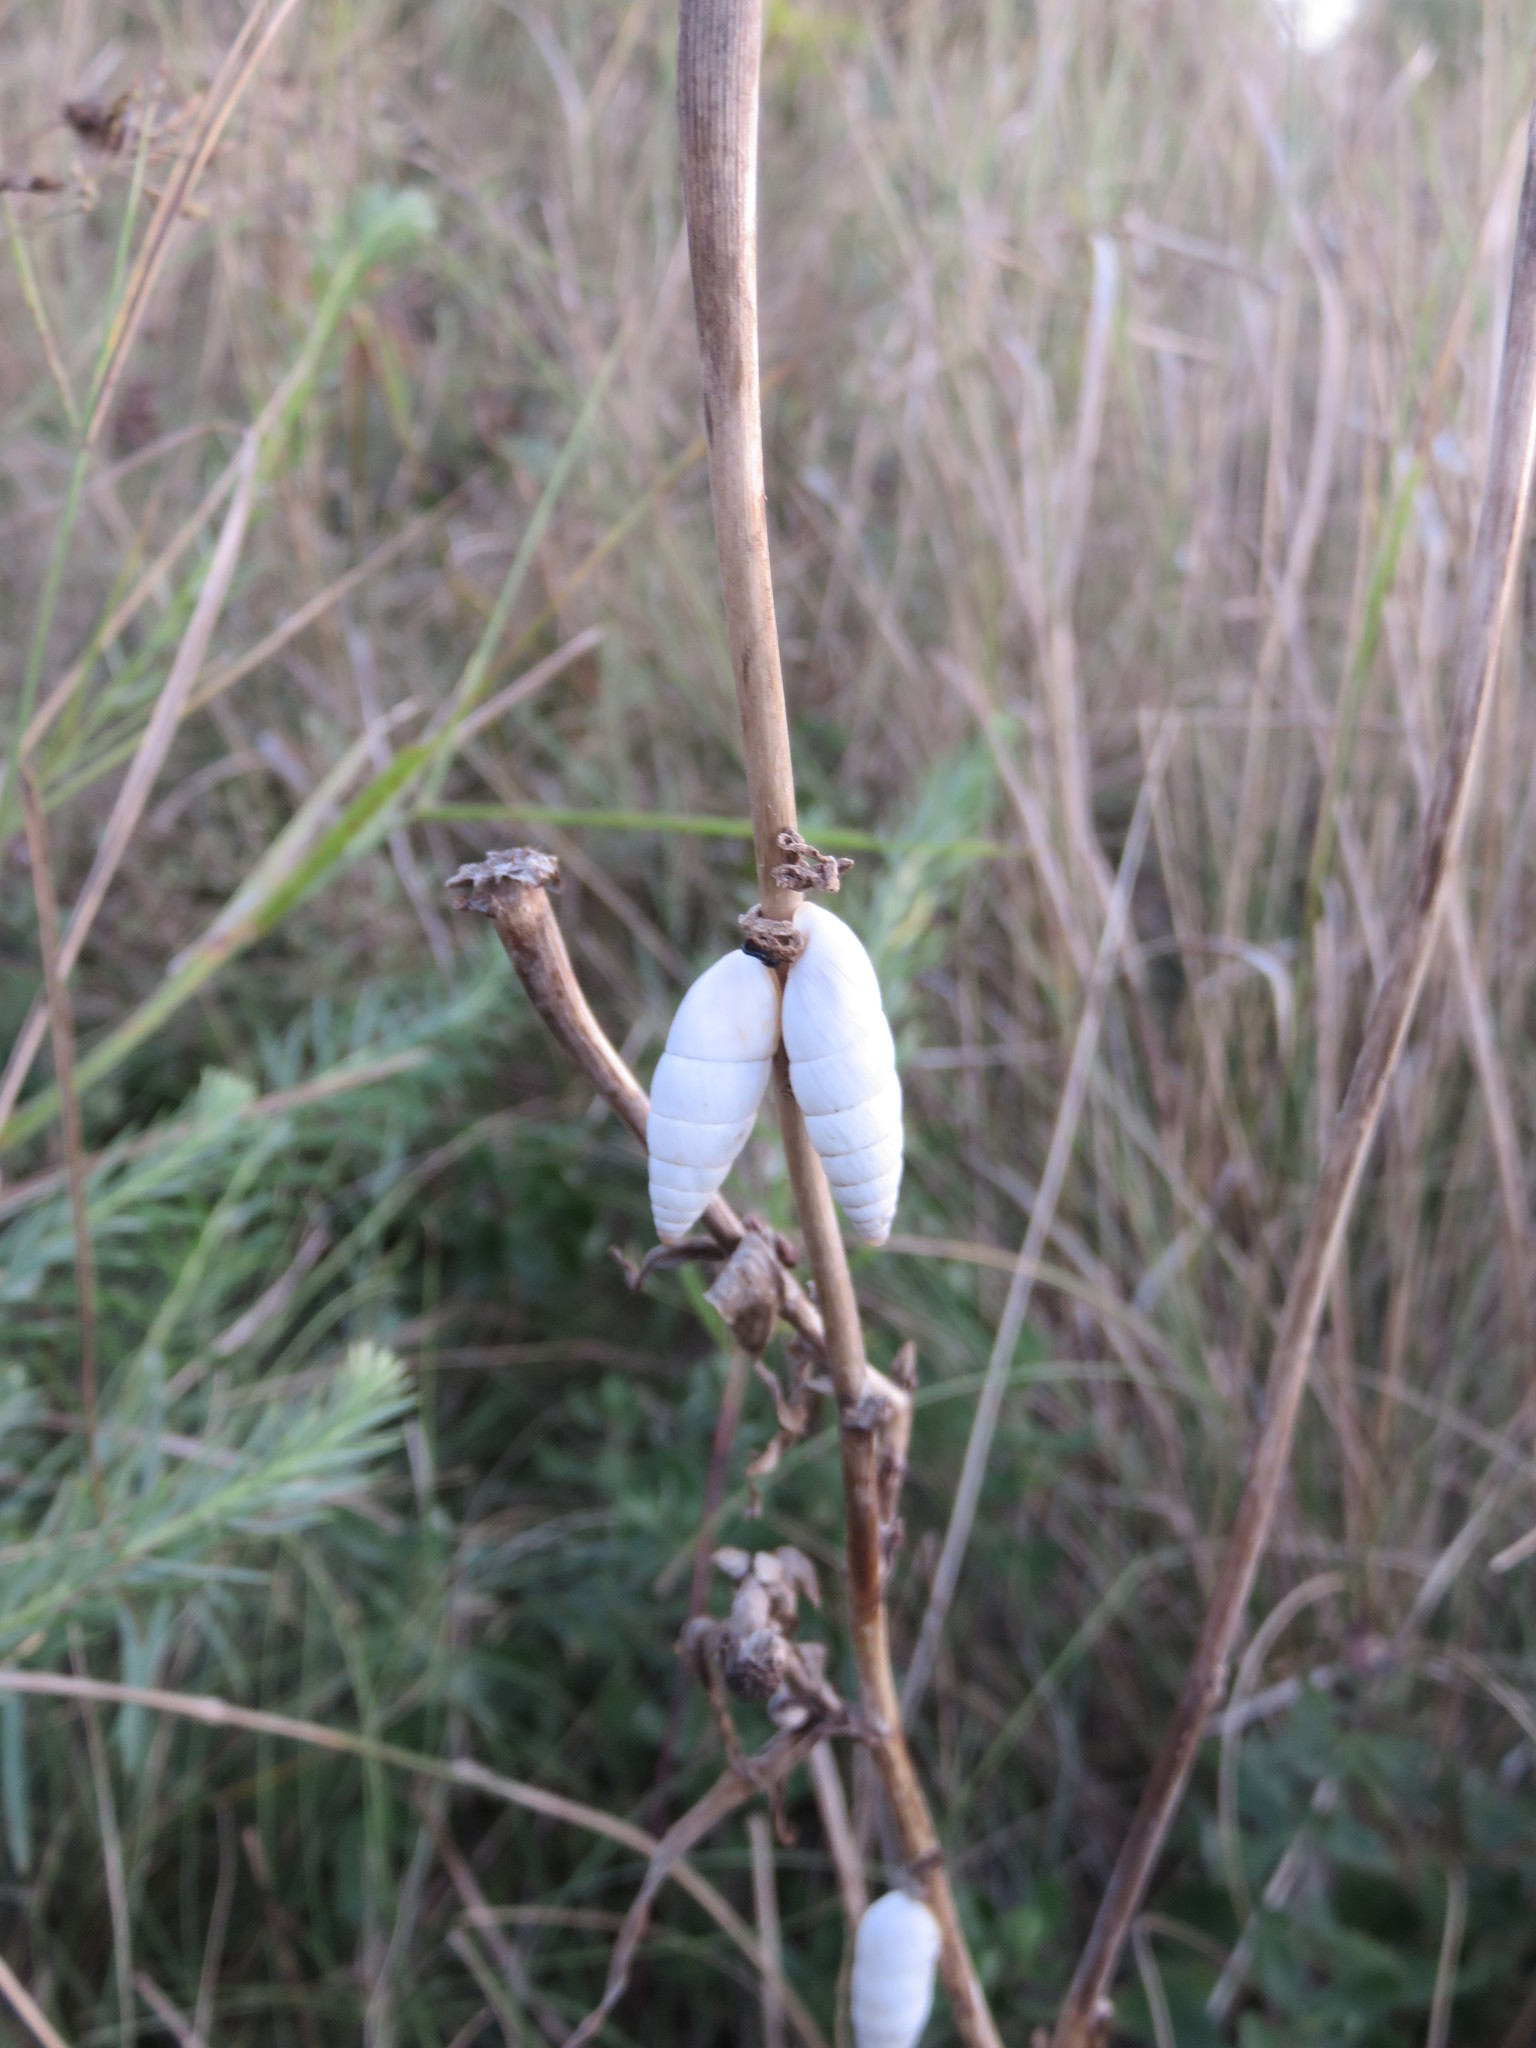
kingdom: Animalia
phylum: Mollusca
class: Gastropoda
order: Stylommatophora
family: Enidae
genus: Brephulopsis
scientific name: Brephulopsis cylindrica
